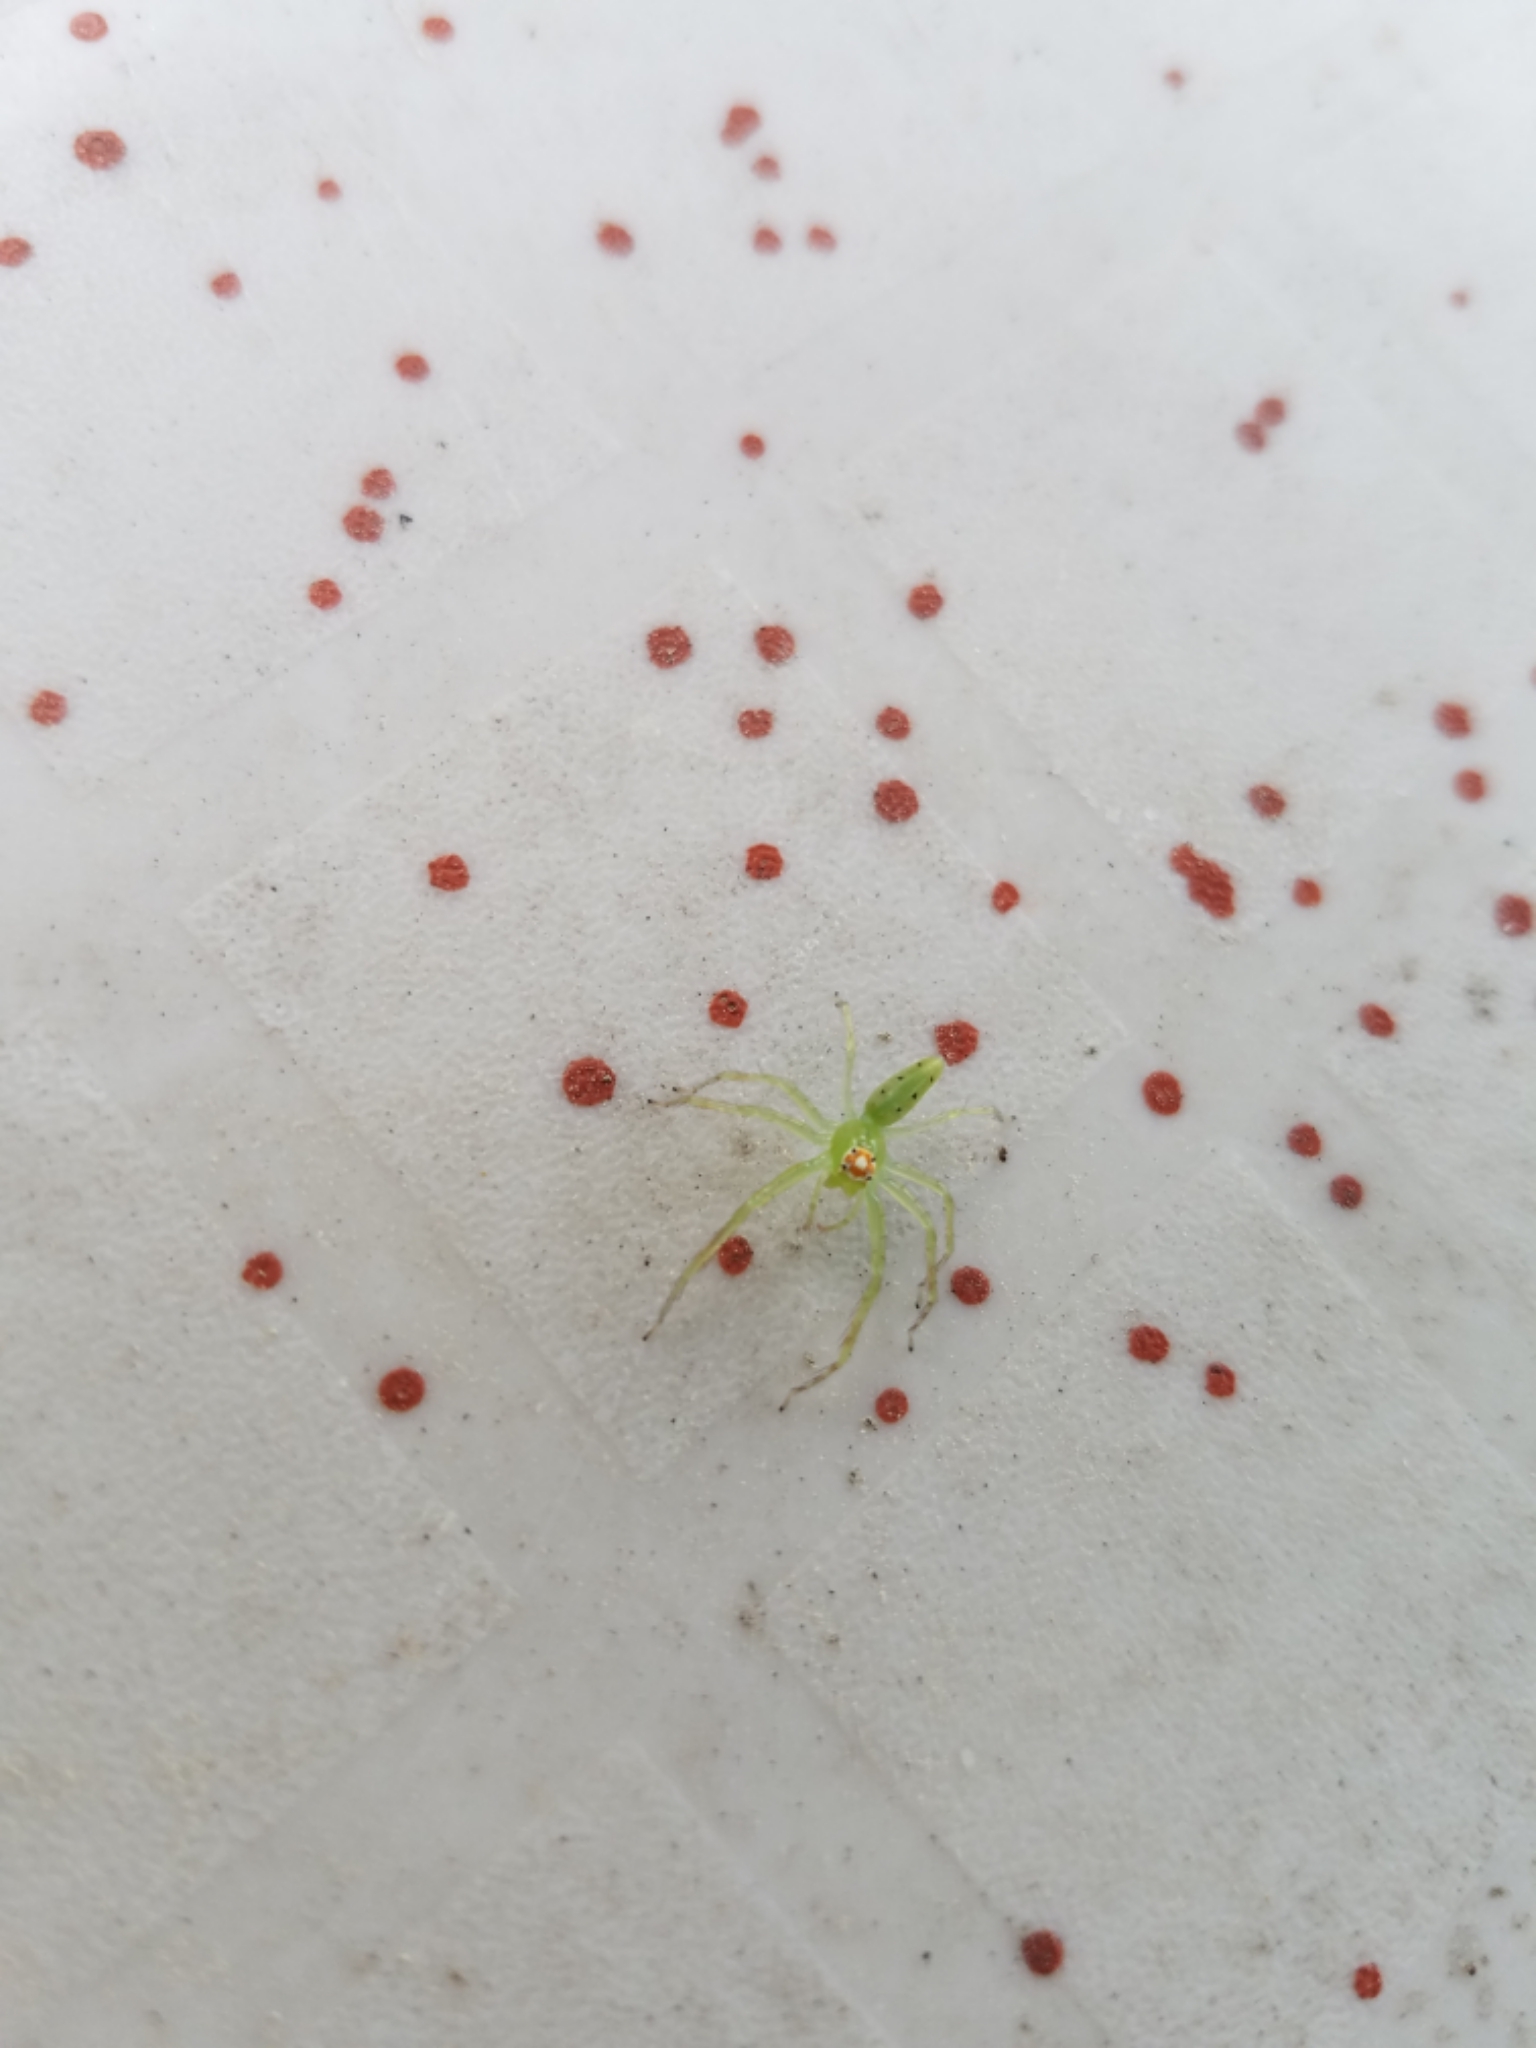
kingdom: Animalia
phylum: Arthropoda
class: Arachnida
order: Araneae
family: Salticidae
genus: Lyssomanes
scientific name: Lyssomanes viridis
